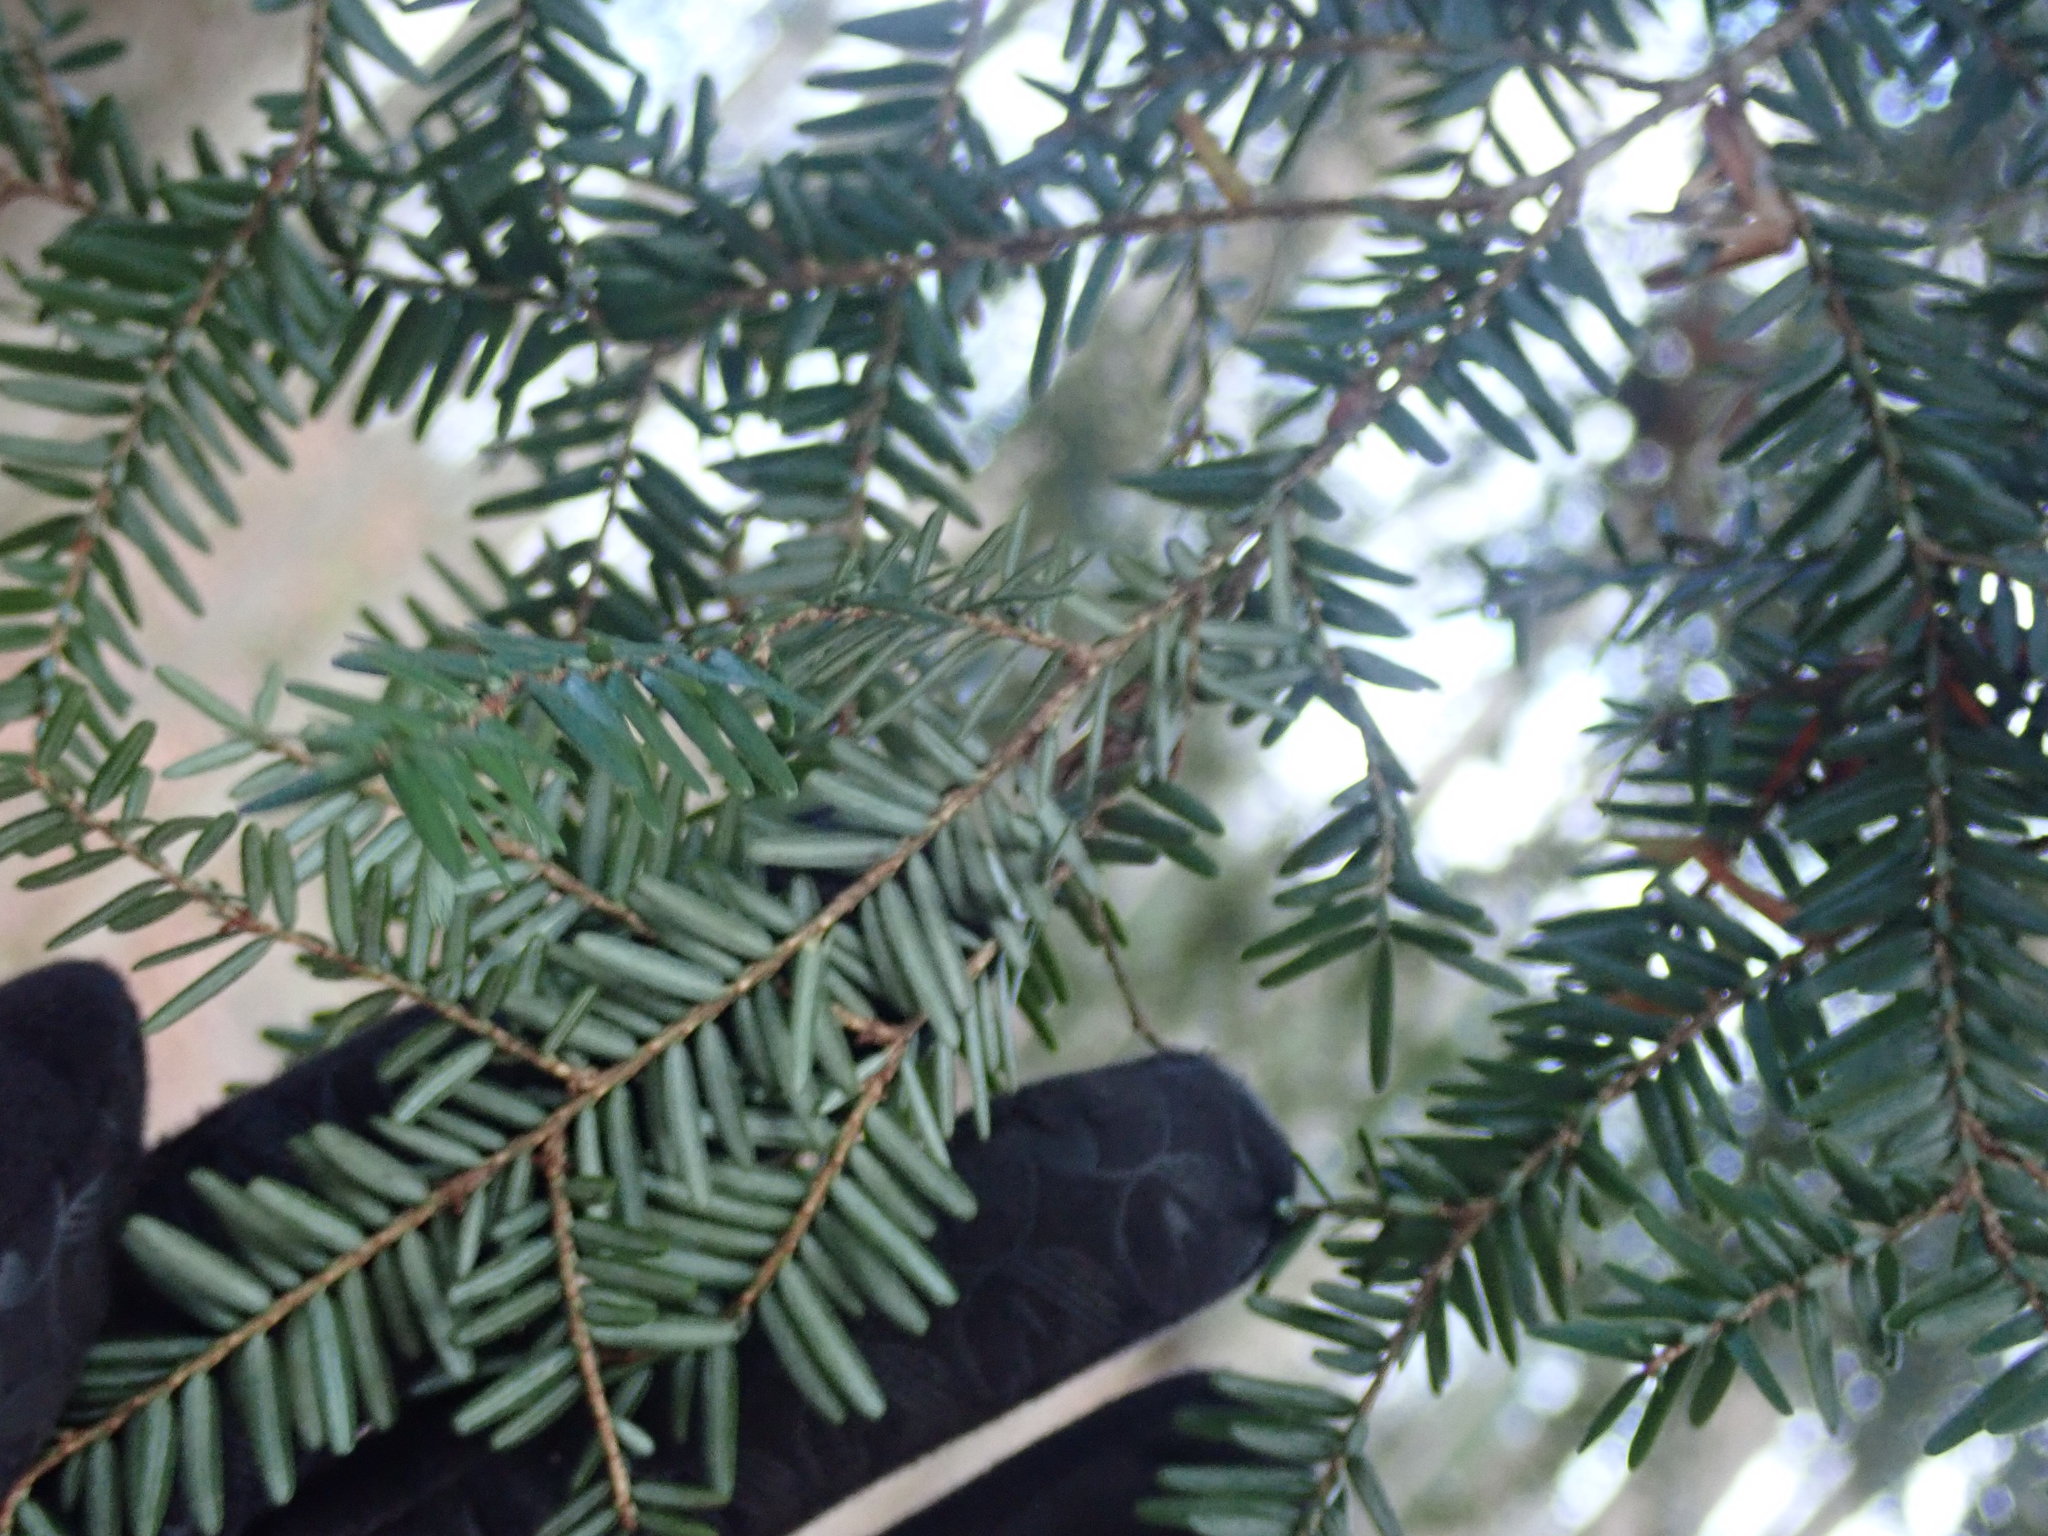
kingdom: Plantae
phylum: Tracheophyta
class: Pinopsida
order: Pinales
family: Pinaceae
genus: Tsuga
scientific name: Tsuga canadensis
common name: Eastern hemlock
